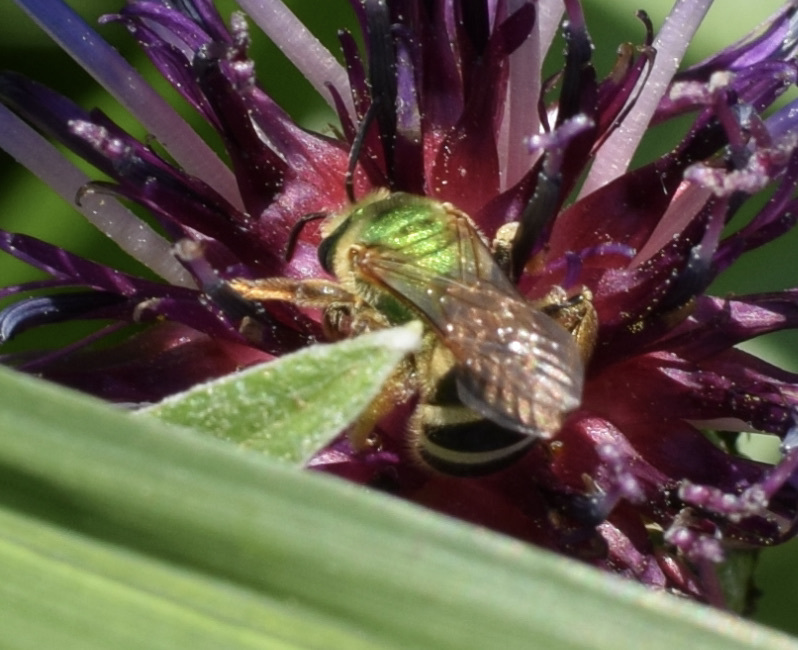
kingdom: Animalia
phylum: Arthropoda
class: Insecta
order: Hymenoptera
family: Halictidae
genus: Agapostemon
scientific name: Agapostemon virescens
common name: Bicolored striped sweat bee
